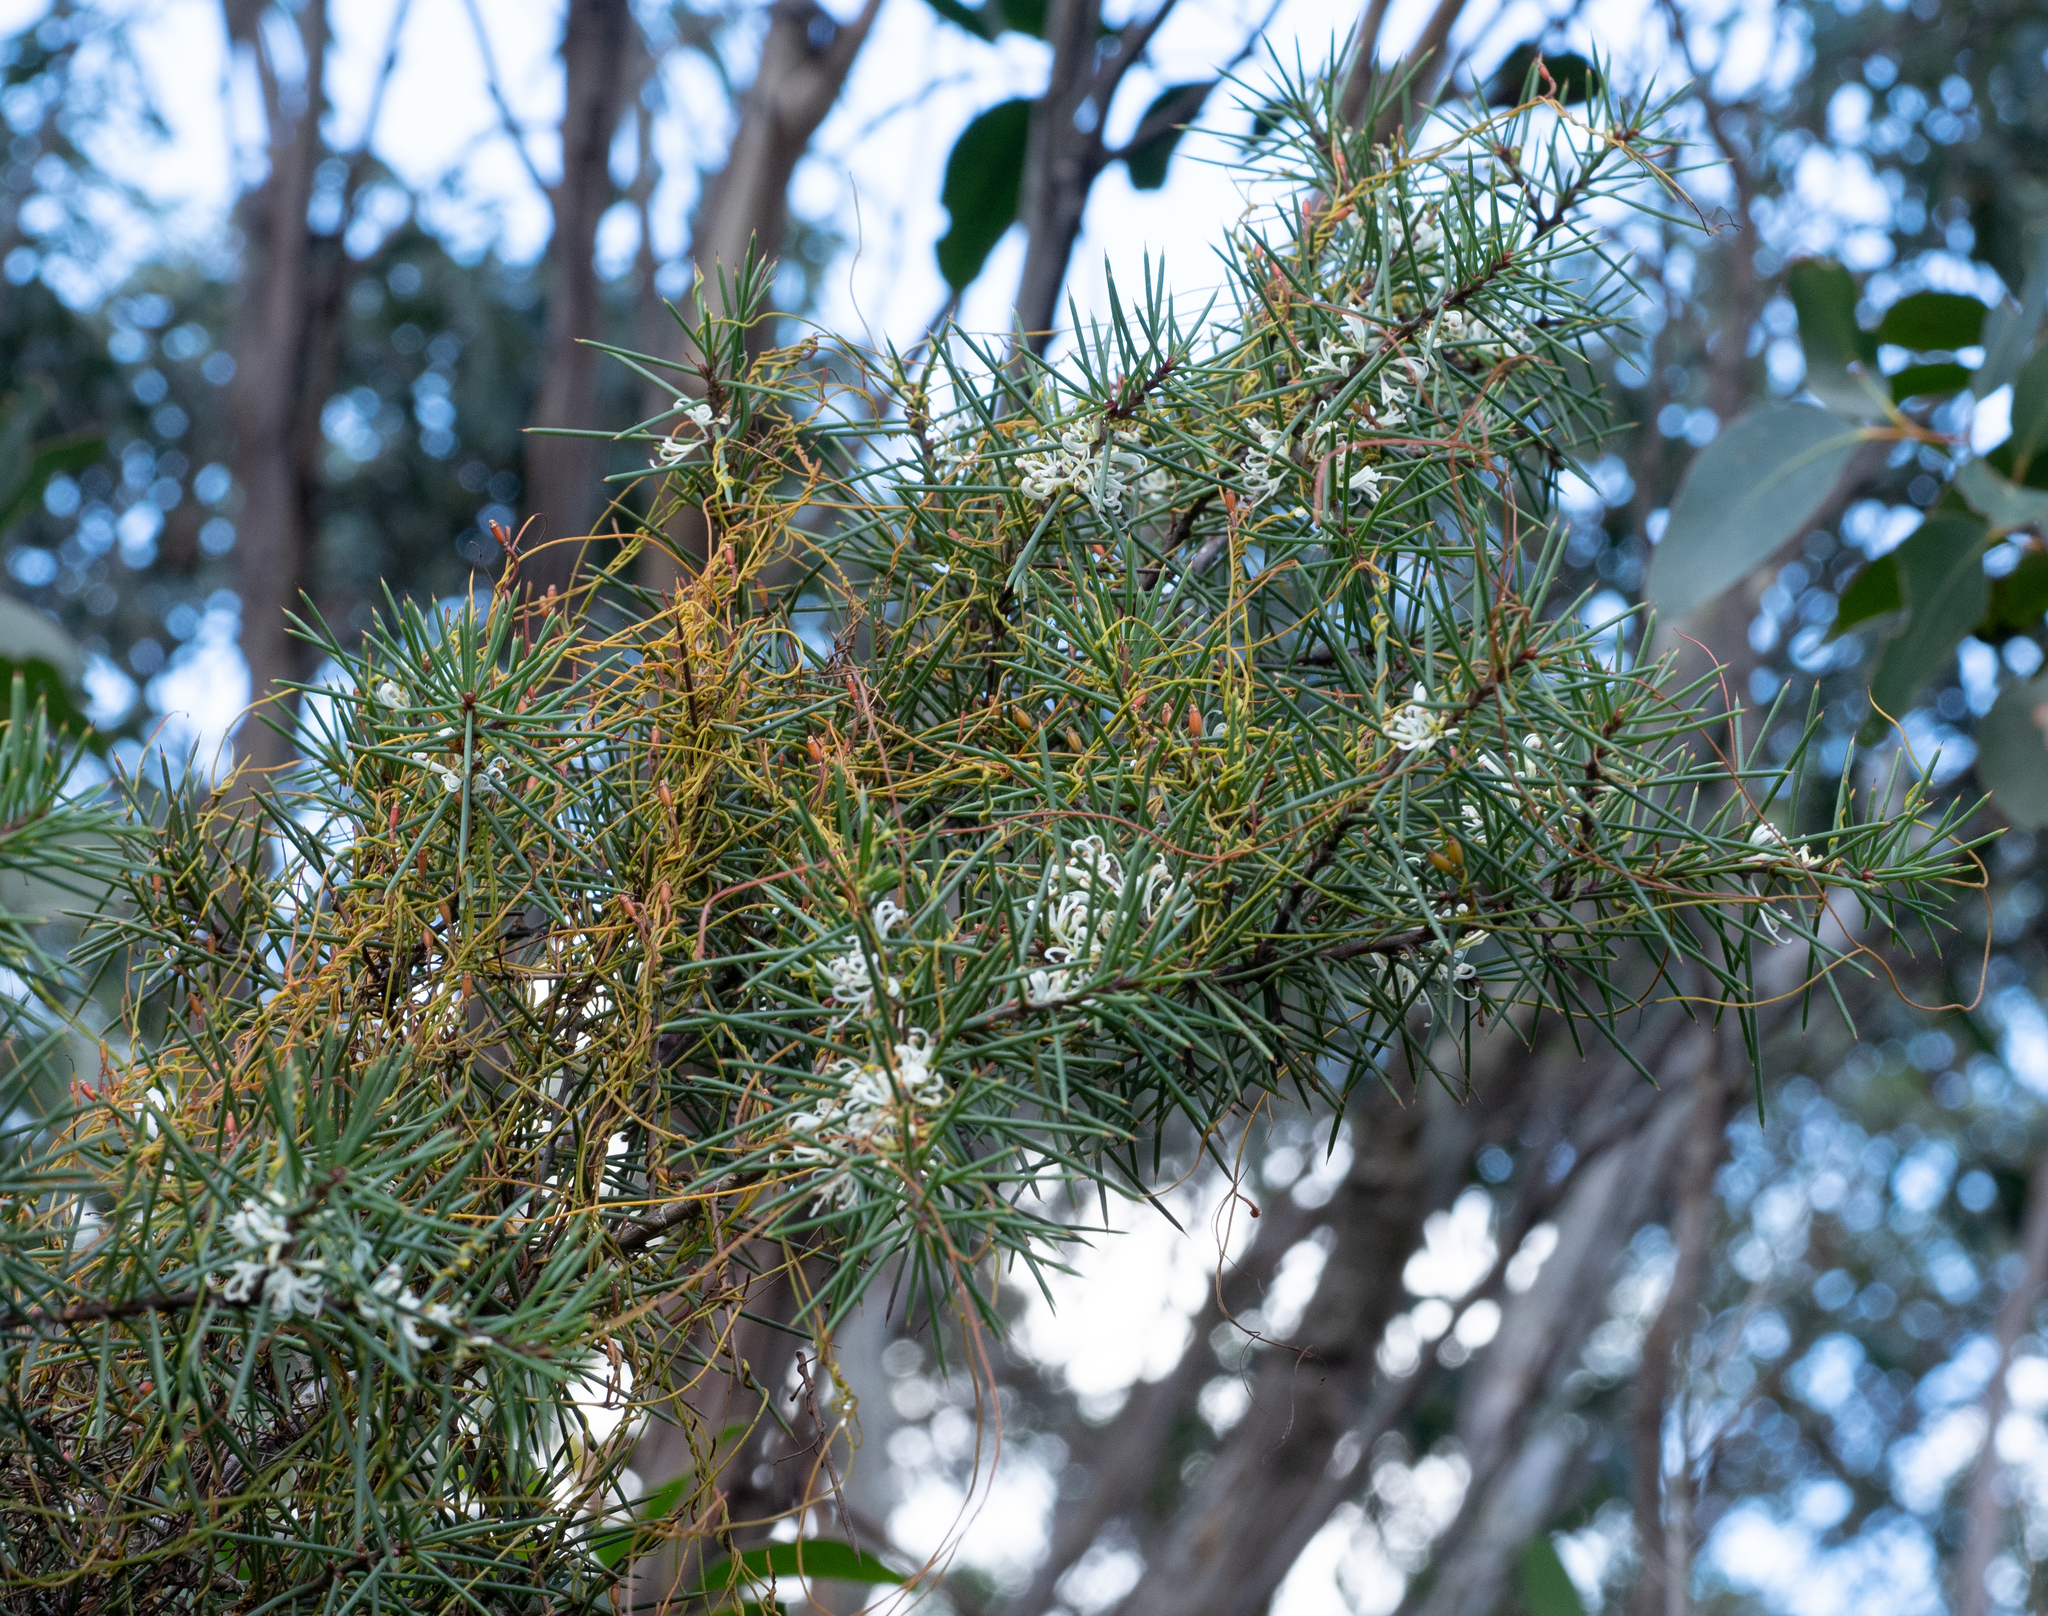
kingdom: Plantae
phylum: Tracheophyta
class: Magnoliopsida
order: Proteales
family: Proteaceae
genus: Hakea
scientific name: Hakea decurrens
